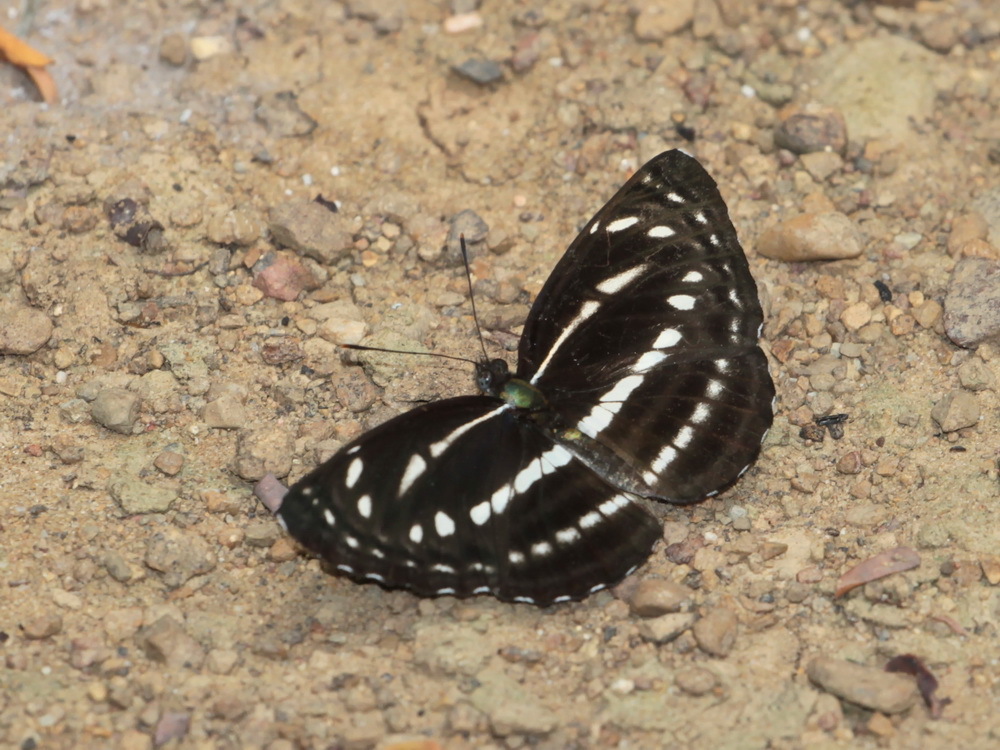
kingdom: Animalia
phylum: Arthropoda
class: Insecta
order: Lepidoptera
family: Nymphalidae
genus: Neptis
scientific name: Neptis nata
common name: Sullied brown sailer
